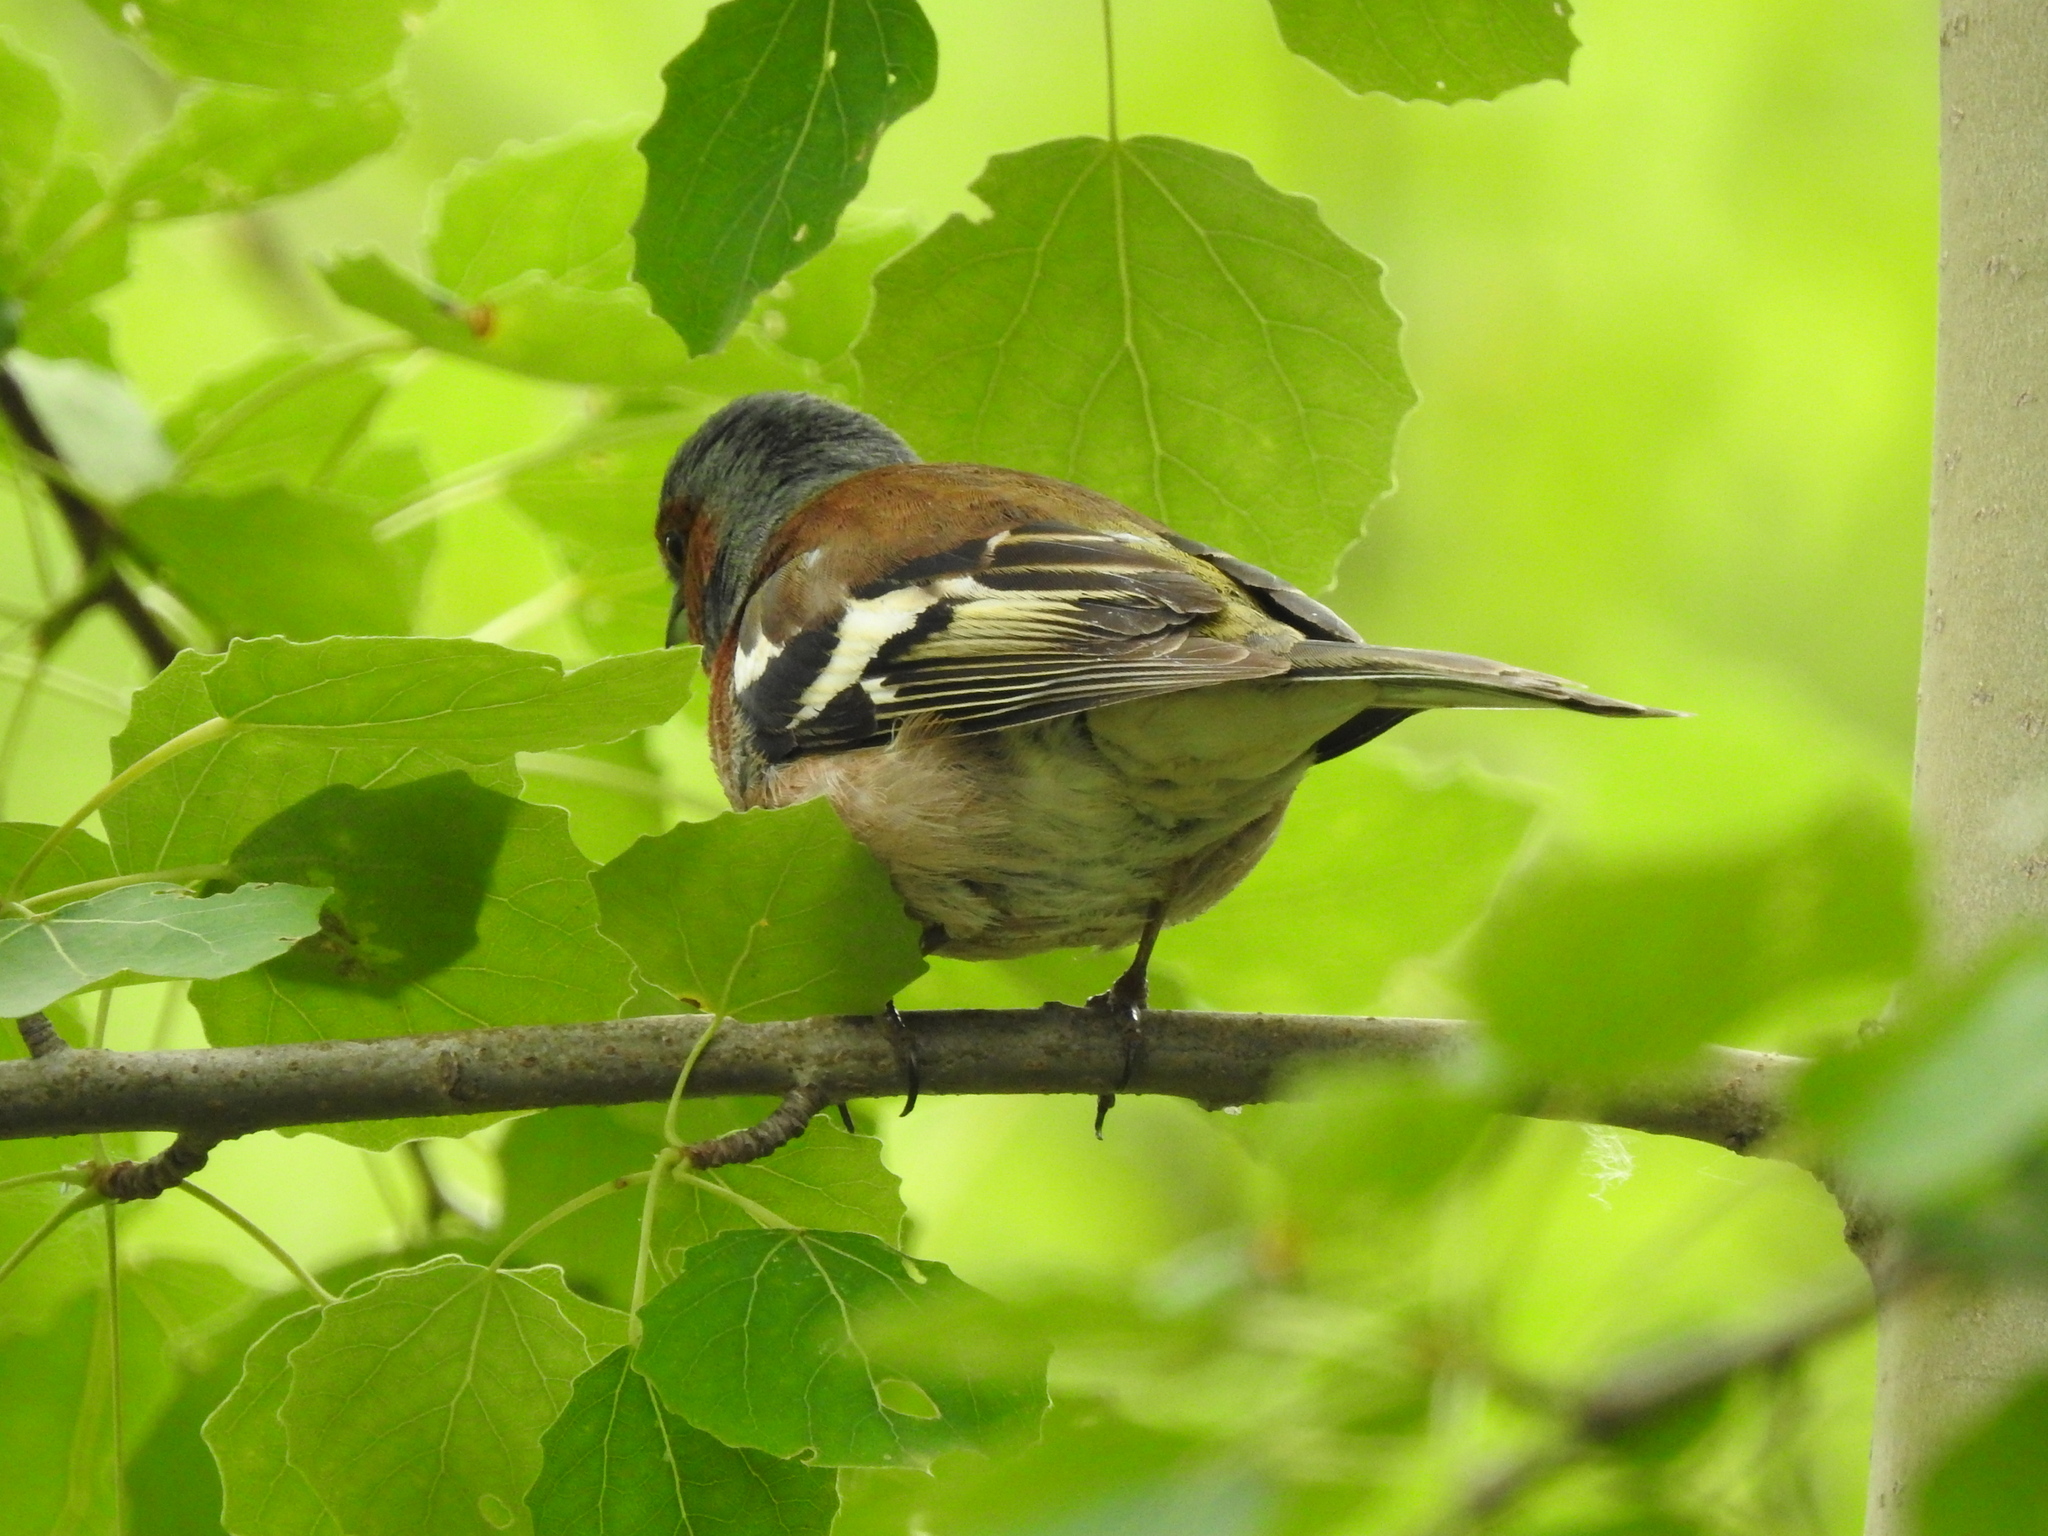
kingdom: Animalia
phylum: Chordata
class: Aves
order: Passeriformes
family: Fringillidae
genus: Fringilla
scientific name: Fringilla coelebs
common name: Common chaffinch
